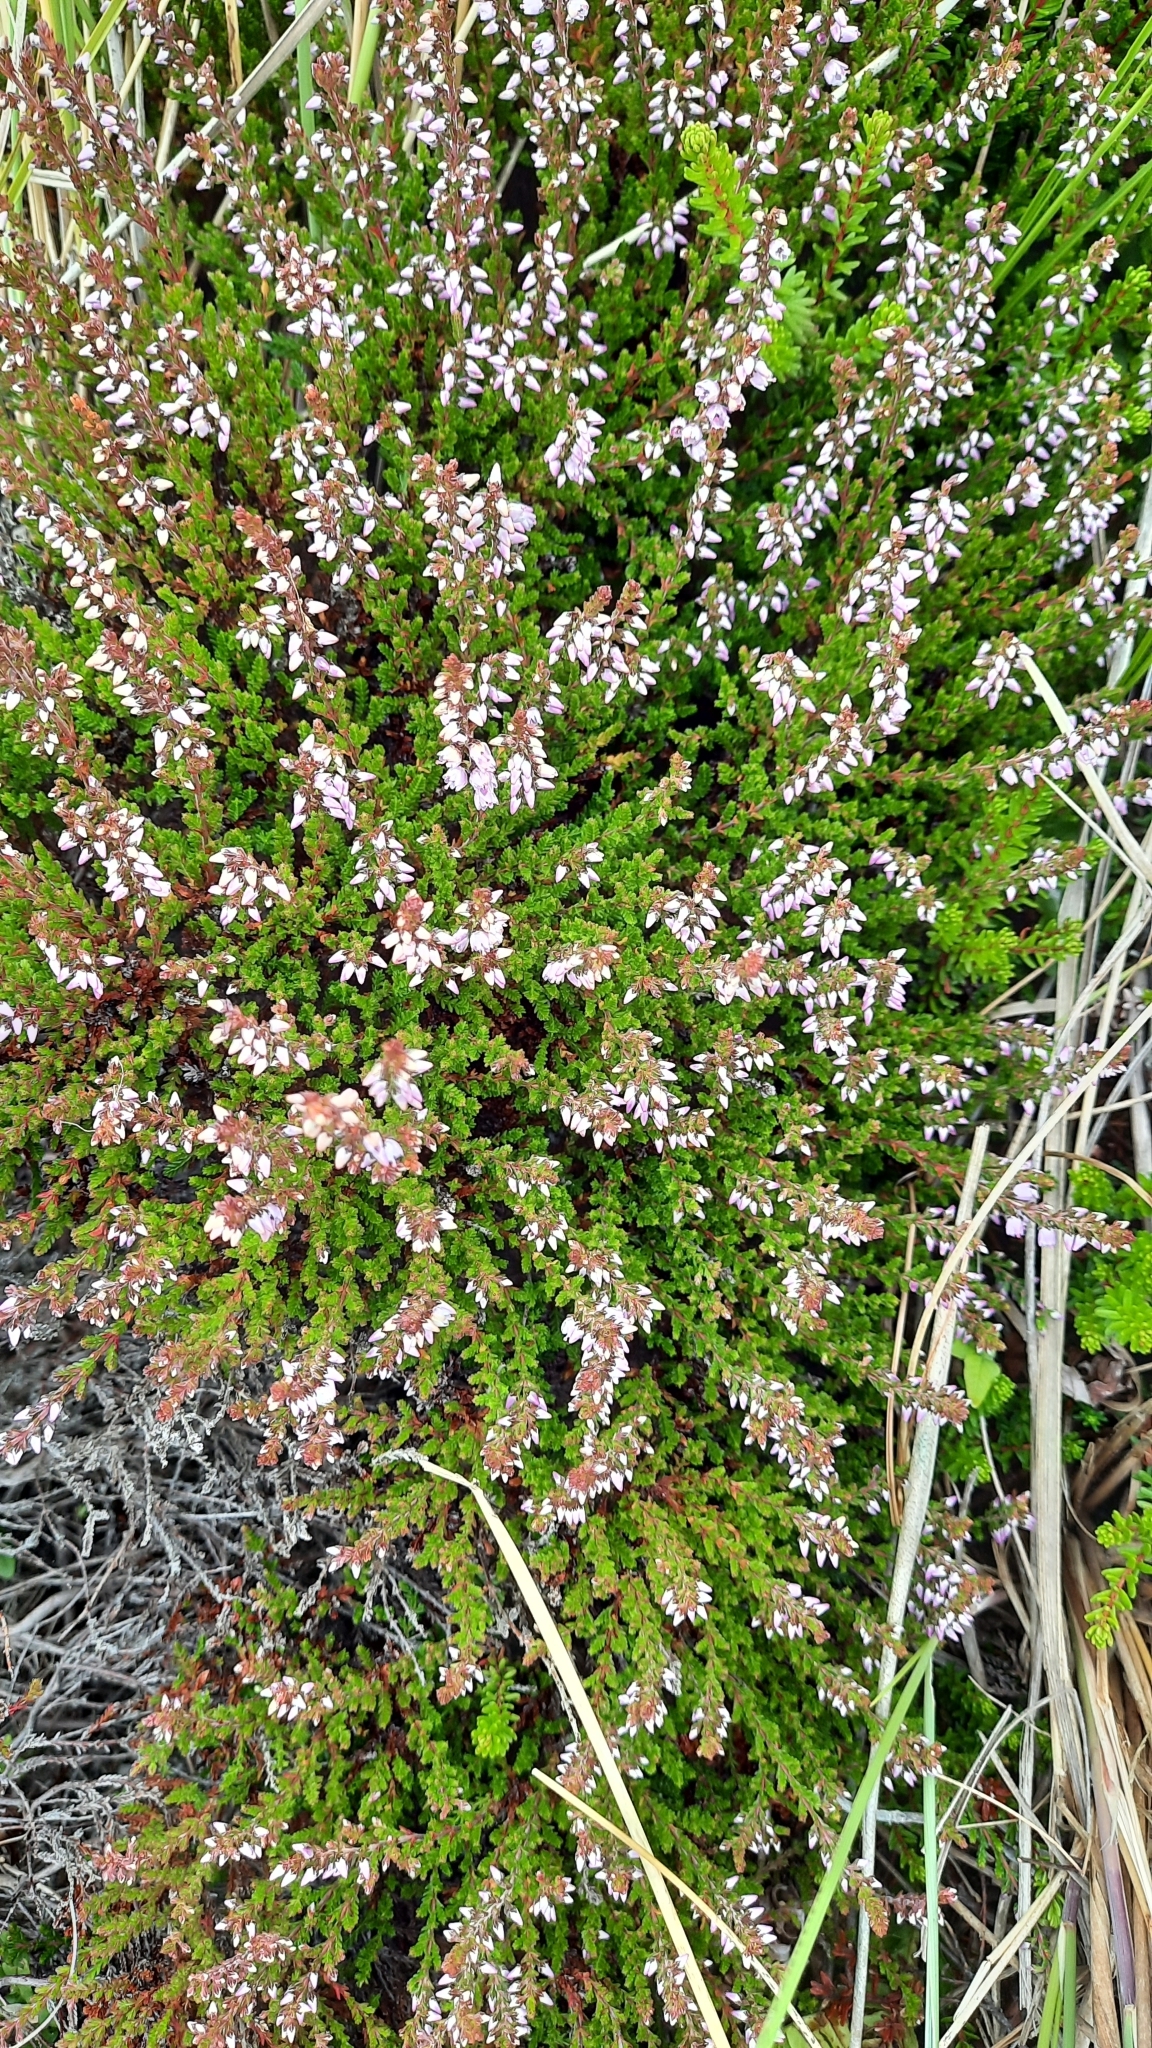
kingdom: Plantae
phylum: Tracheophyta
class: Magnoliopsida
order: Ericales
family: Ericaceae
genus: Calluna
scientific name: Calluna vulgaris
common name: Heather
